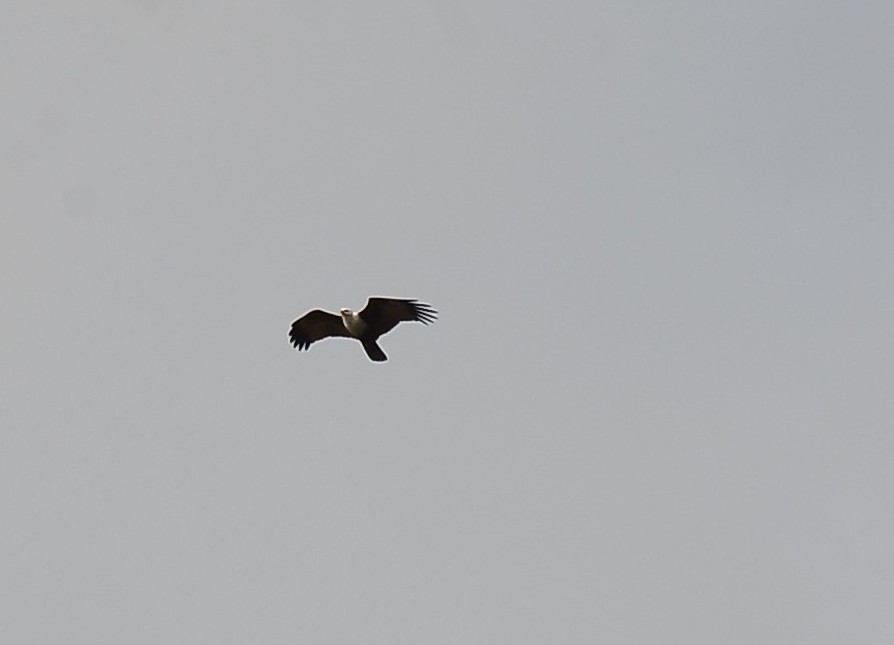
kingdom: Animalia
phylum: Chordata
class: Aves
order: Accipitriformes
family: Accipitridae
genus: Haliastur
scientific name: Haliastur indus
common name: Brahminy kite
